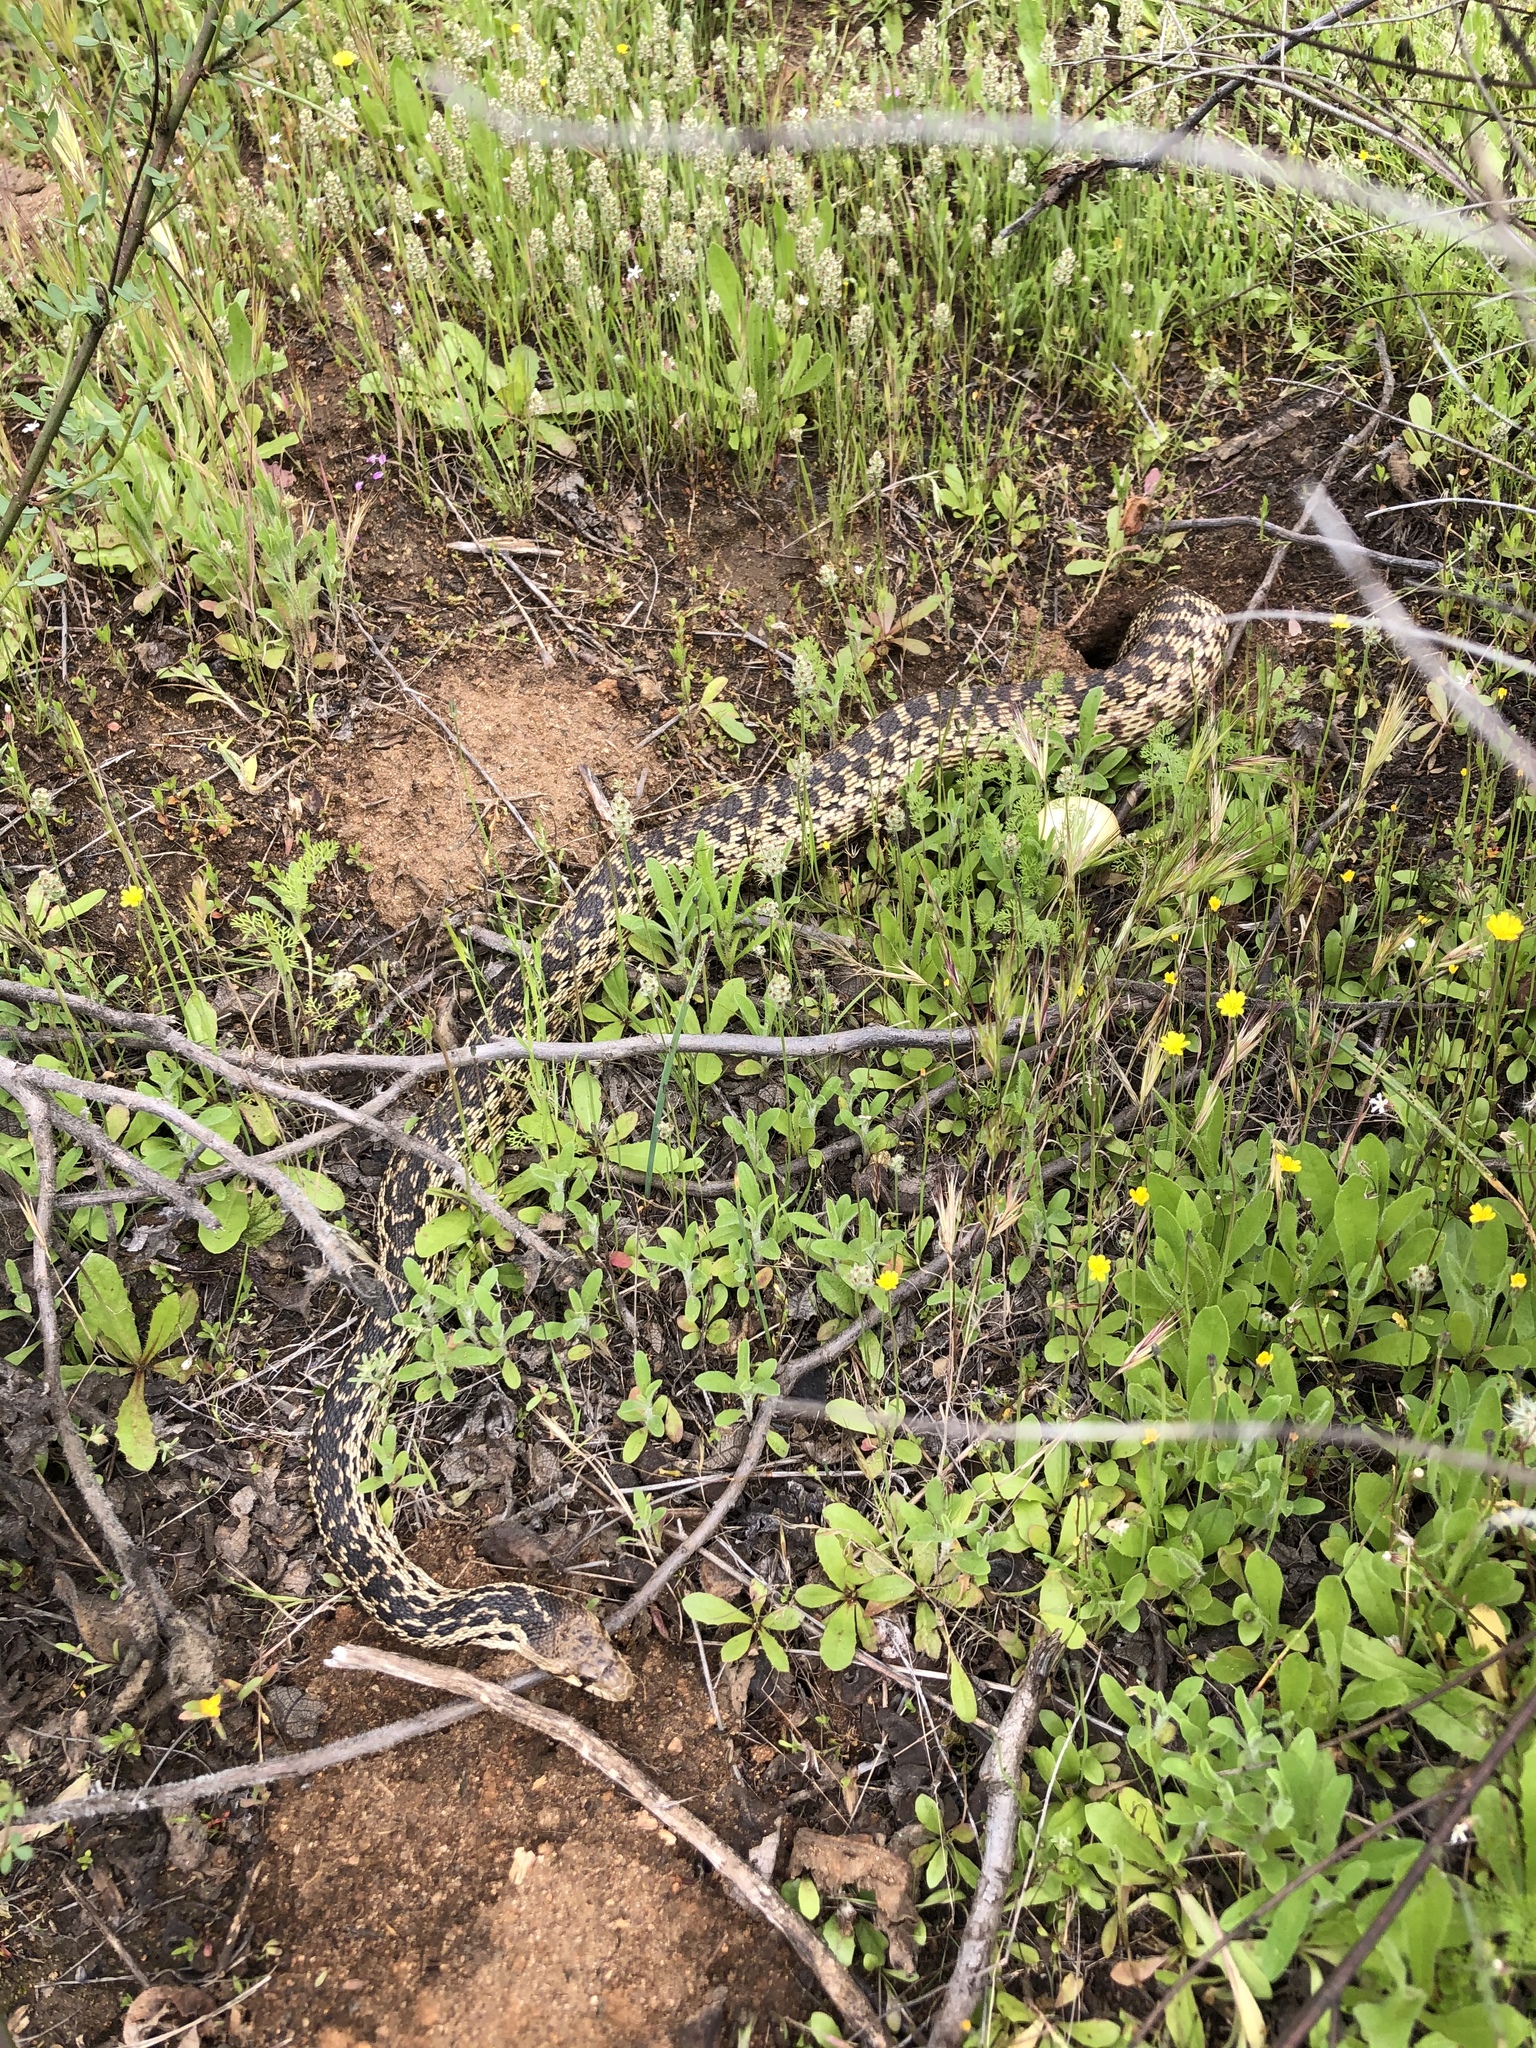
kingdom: Animalia
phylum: Chordata
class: Squamata
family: Colubridae
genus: Pituophis
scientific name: Pituophis catenifer
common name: Gopher snake
